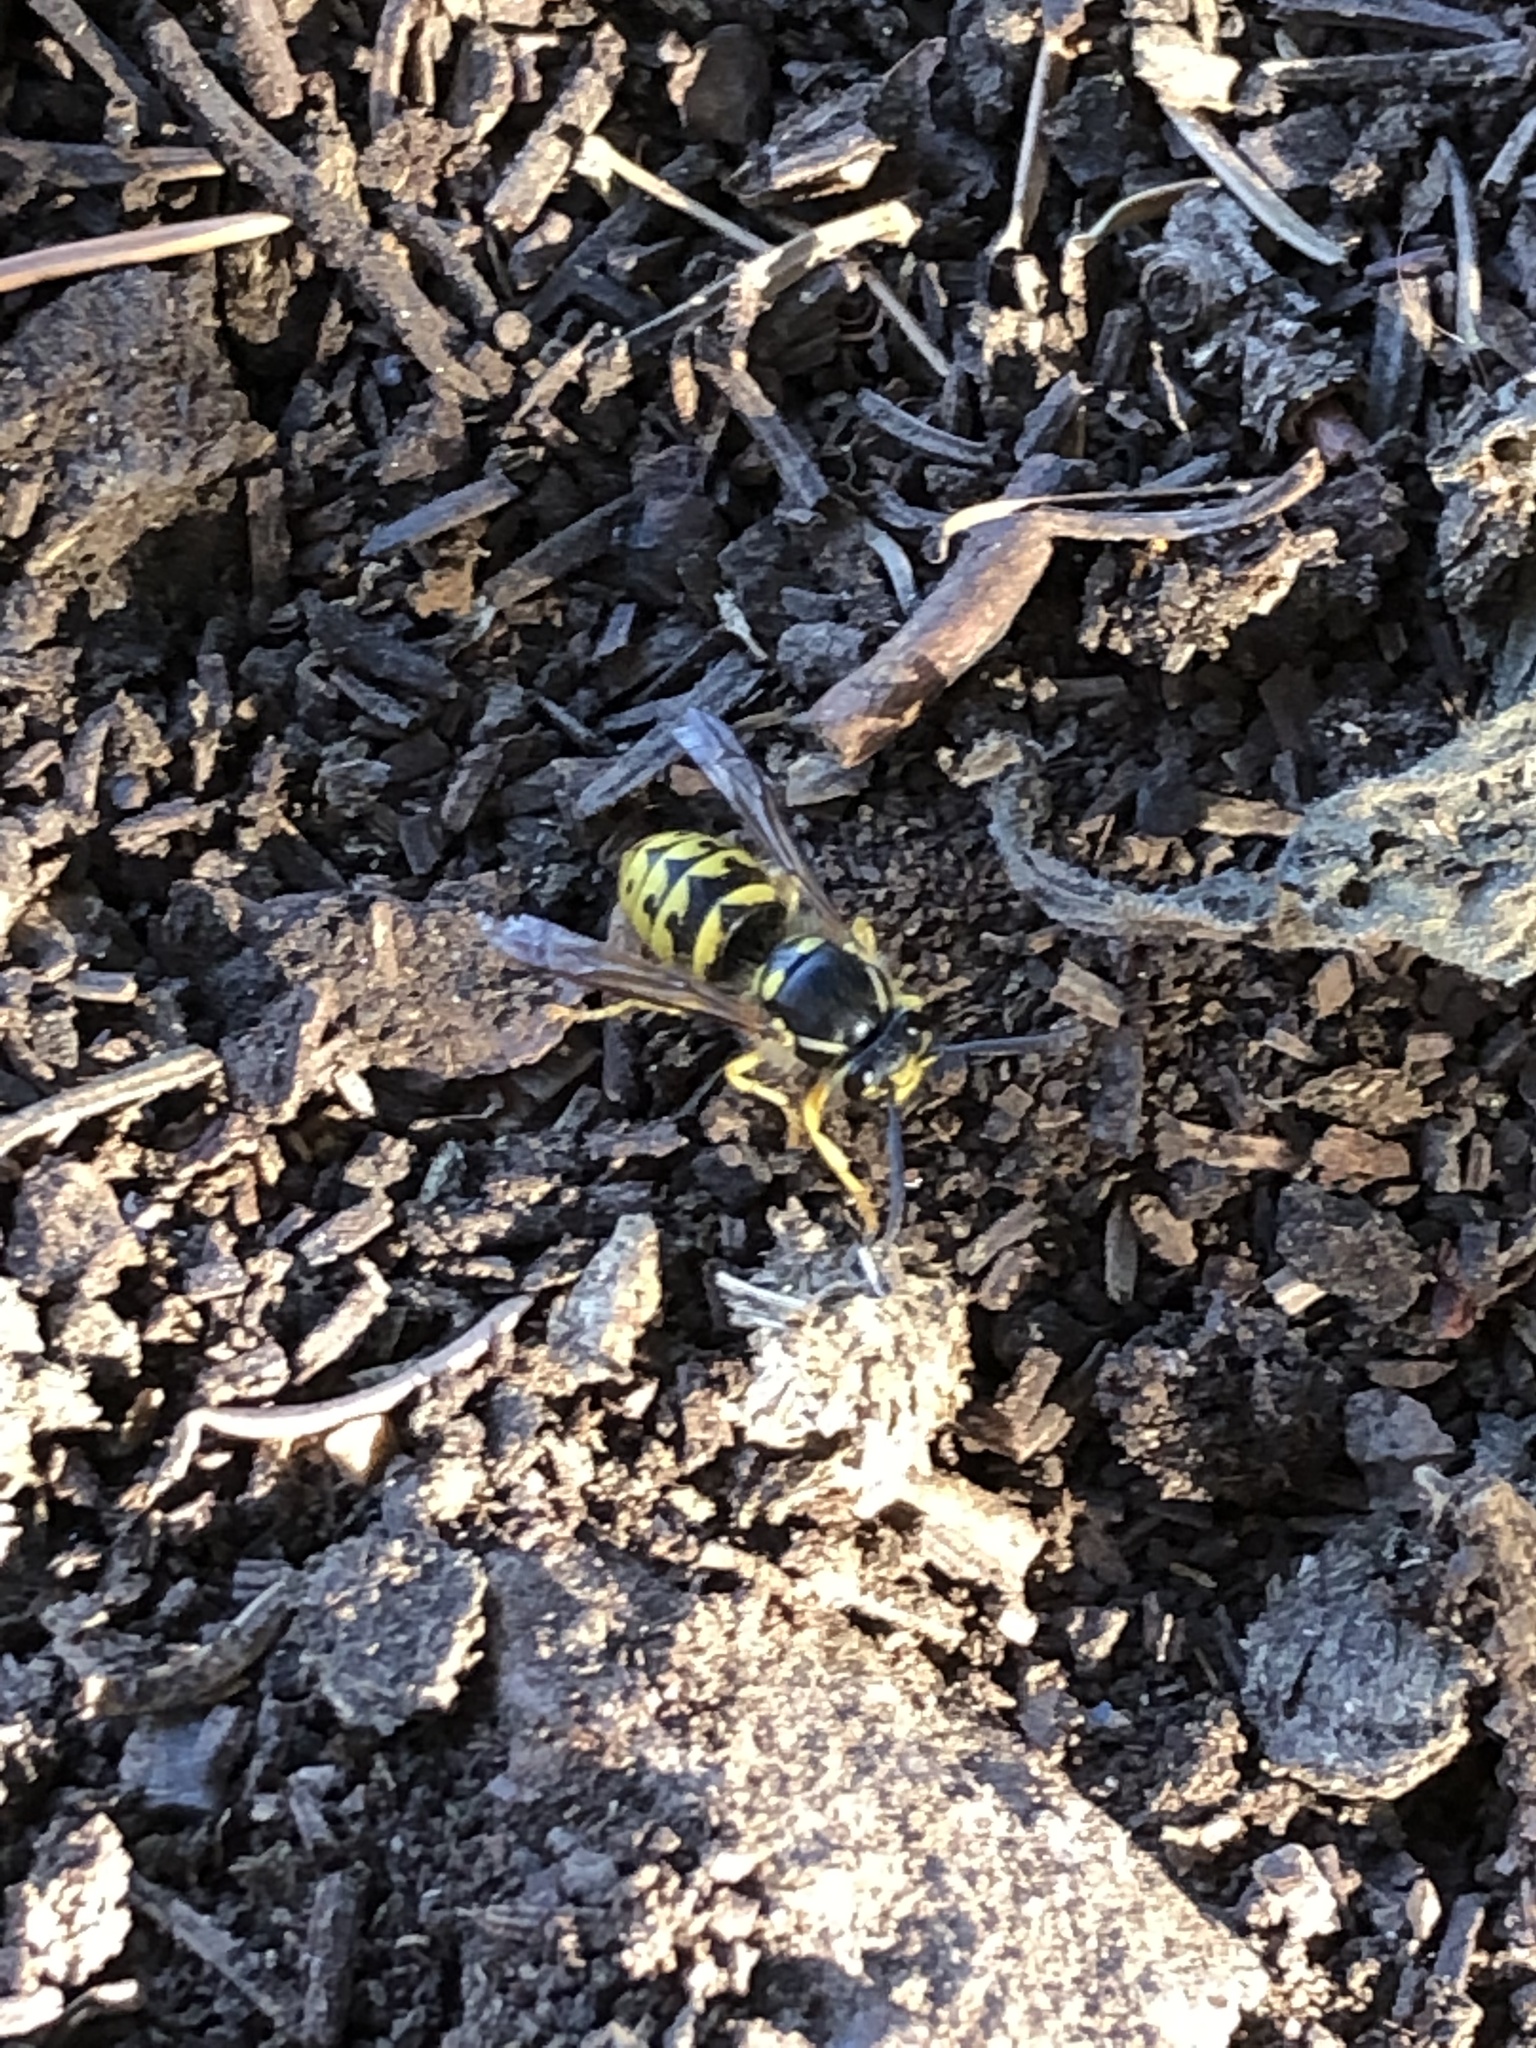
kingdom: Animalia
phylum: Arthropoda
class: Insecta
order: Hymenoptera
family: Vespidae
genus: Dolichovespula
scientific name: Dolichovespula arenaria
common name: Aerial yellowjacket
